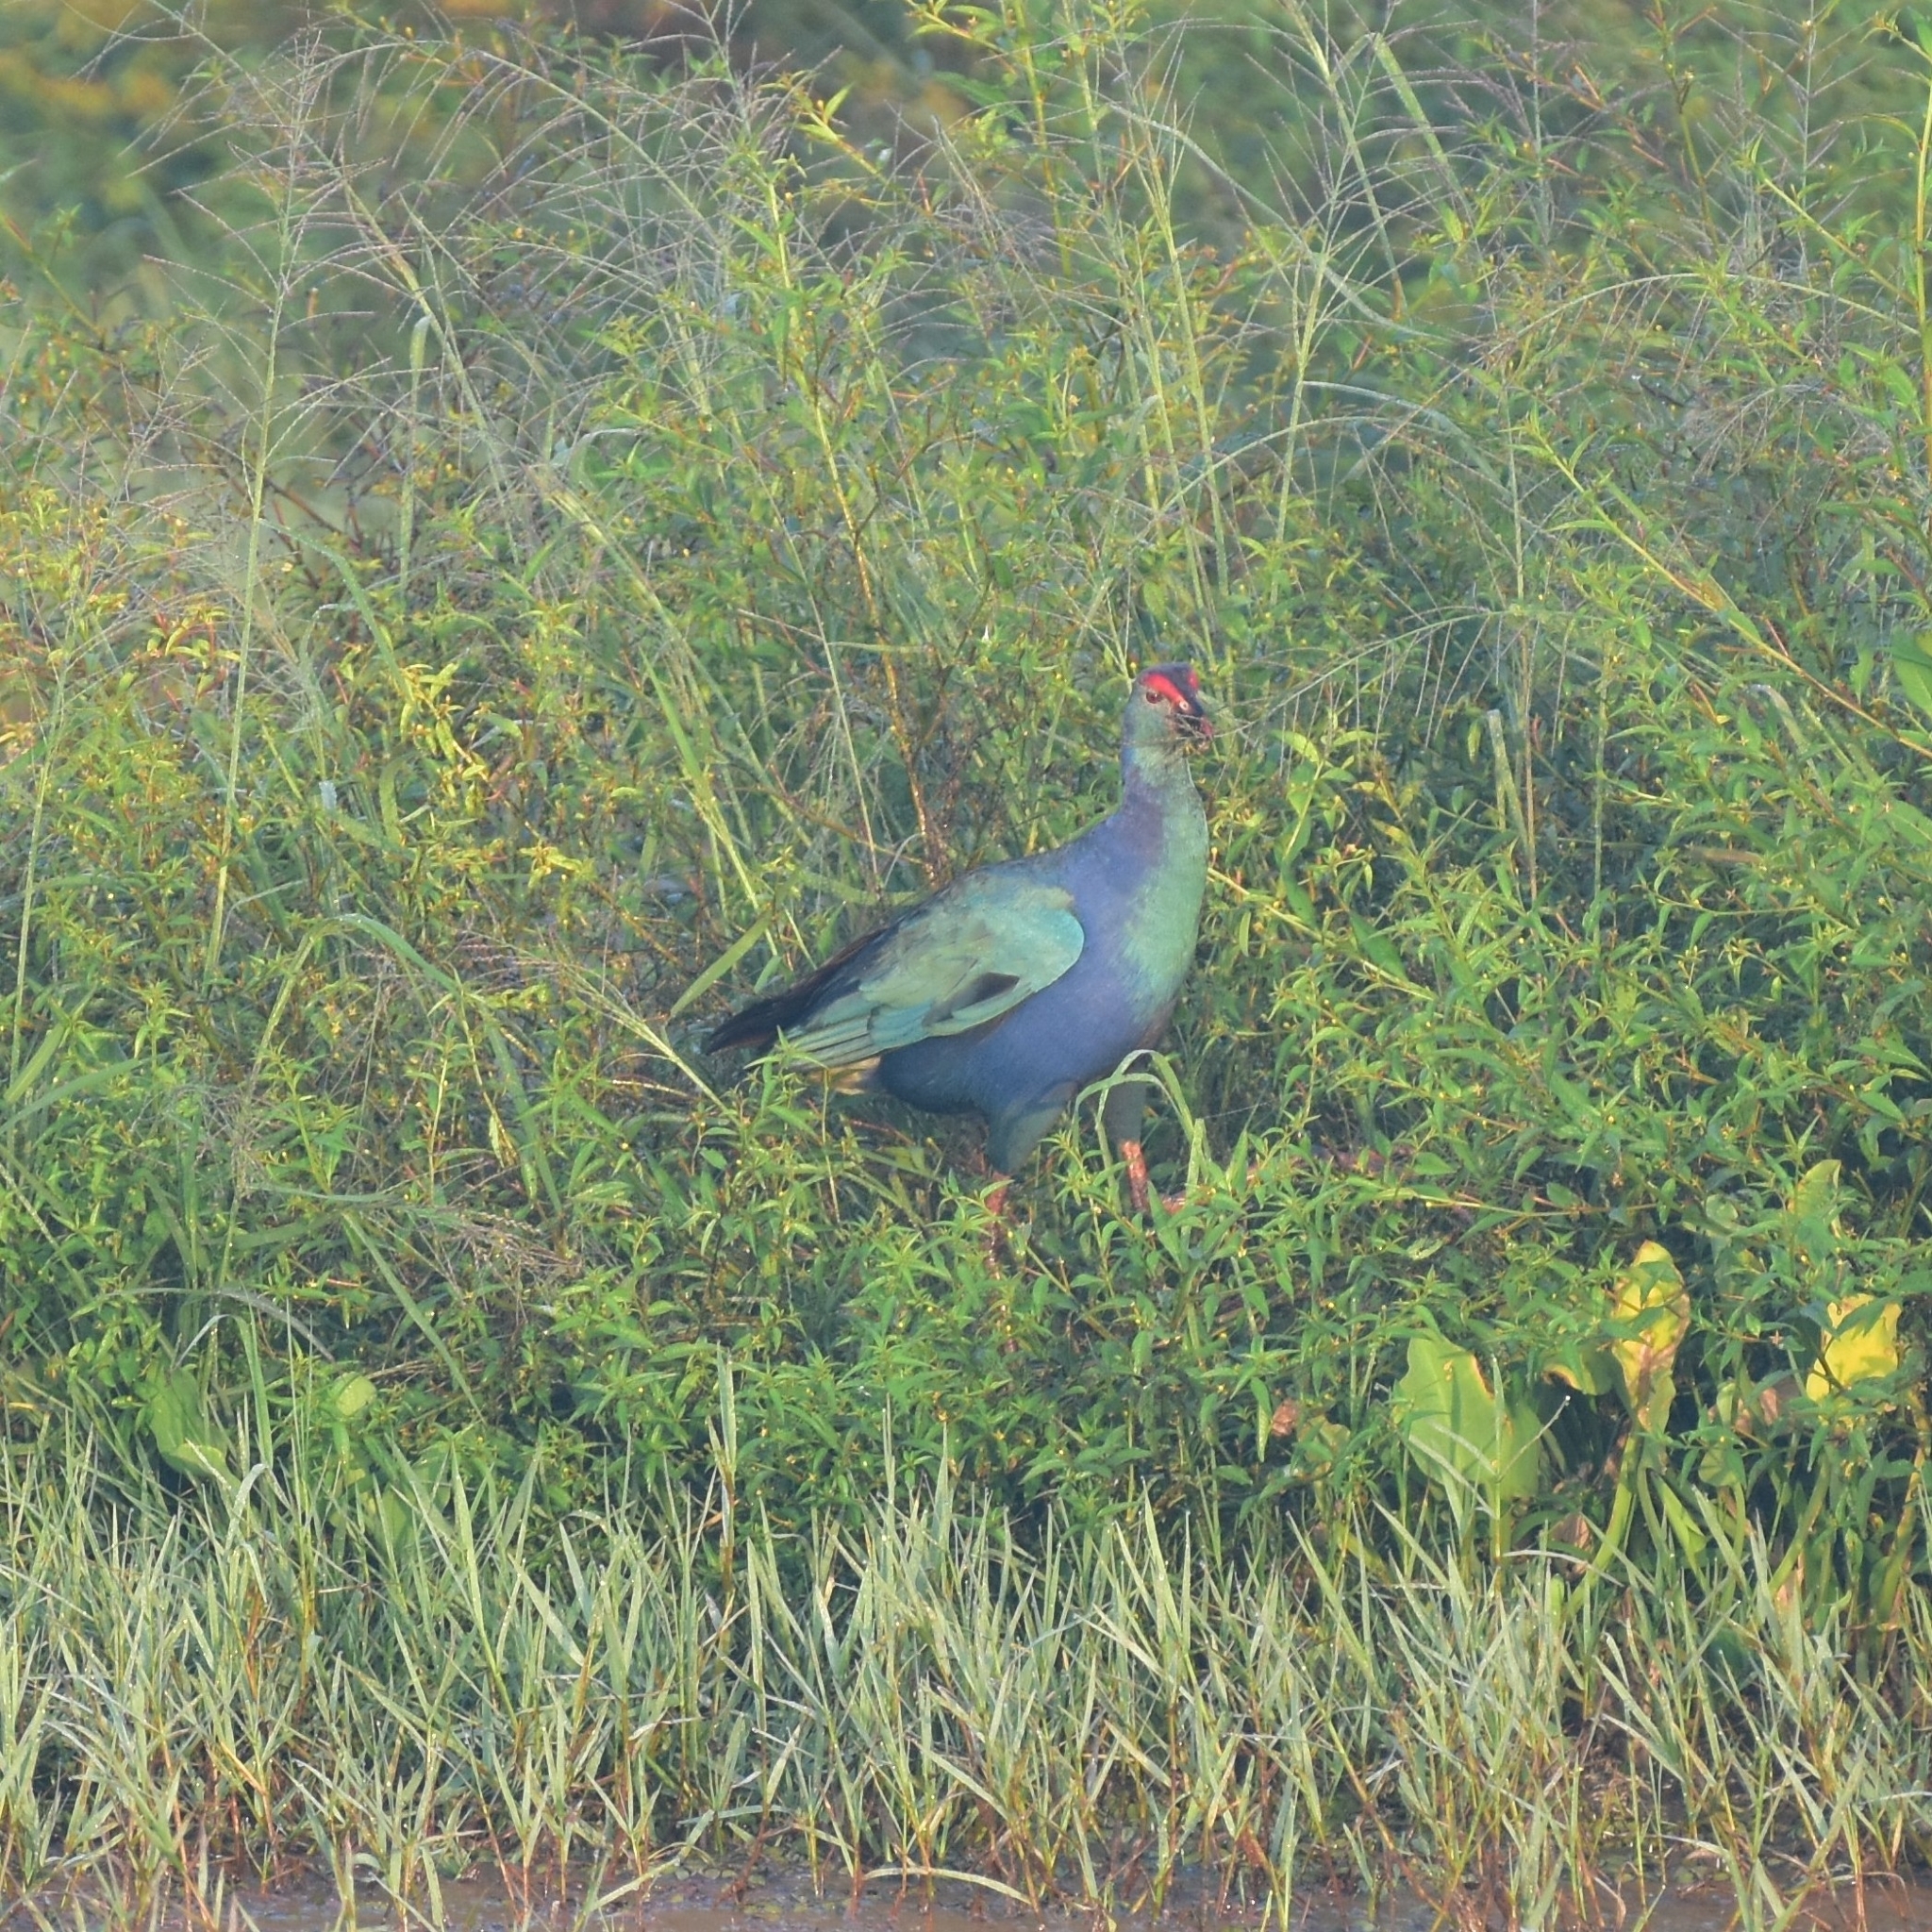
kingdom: Animalia
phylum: Chordata
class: Aves
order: Gruiformes
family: Rallidae
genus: Porphyrio
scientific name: Porphyrio porphyrio
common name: Purple swamphen
